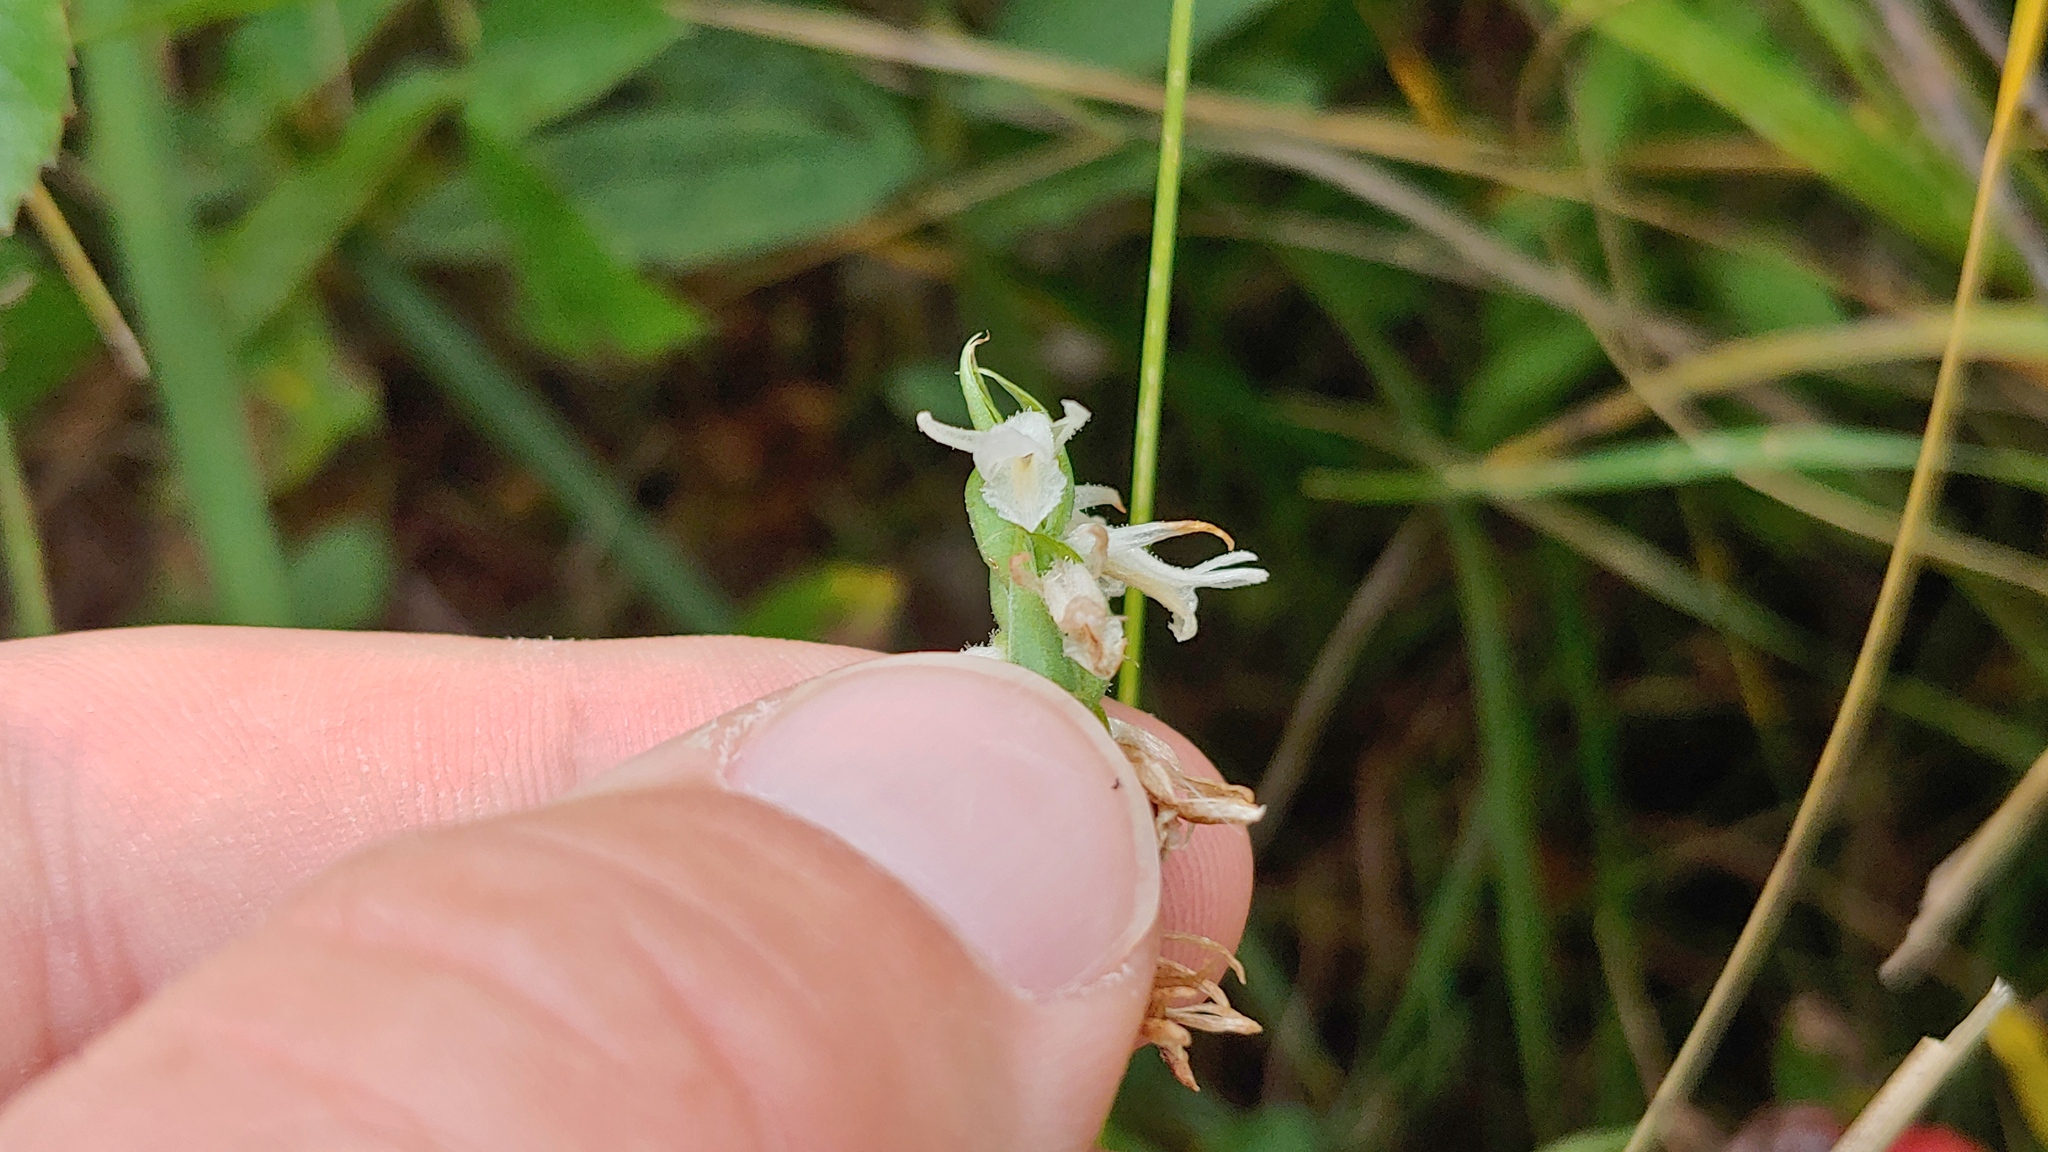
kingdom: Plantae
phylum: Tracheophyta
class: Liliopsida
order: Asparagales
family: Orchidaceae
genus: Spiranthes
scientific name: Spiranthes magnicamporum
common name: Great plains ladies'-tresses
